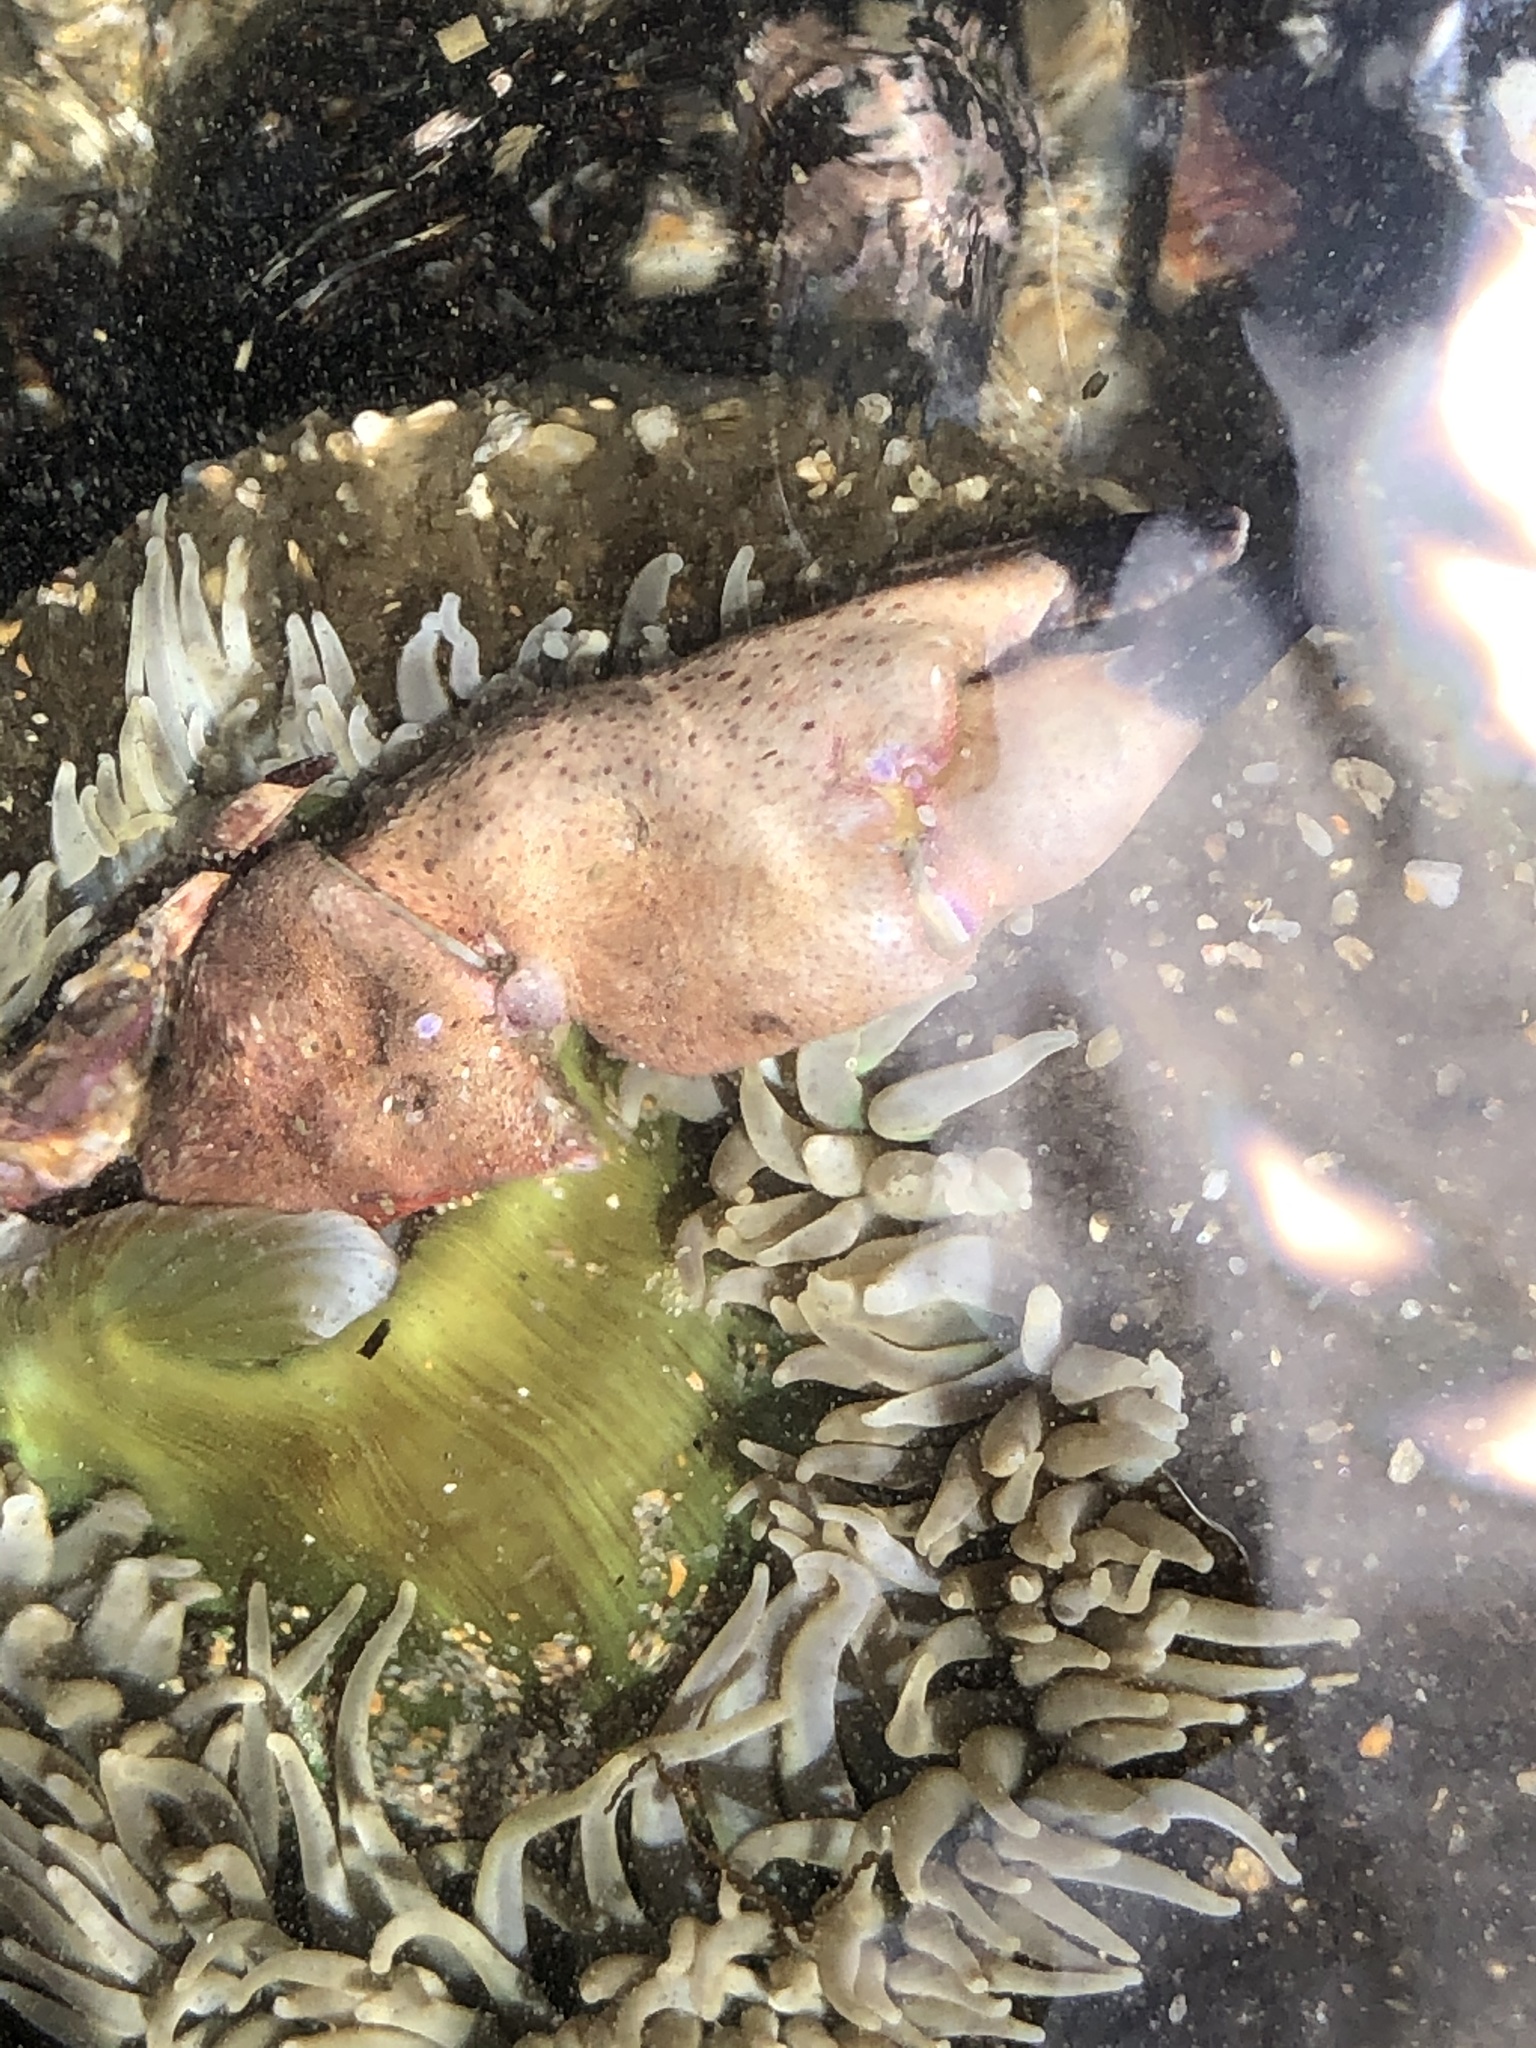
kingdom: Animalia
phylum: Arthropoda
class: Malacostraca
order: Decapoda
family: Cancridae
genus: Romaleon
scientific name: Romaleon antennarium
